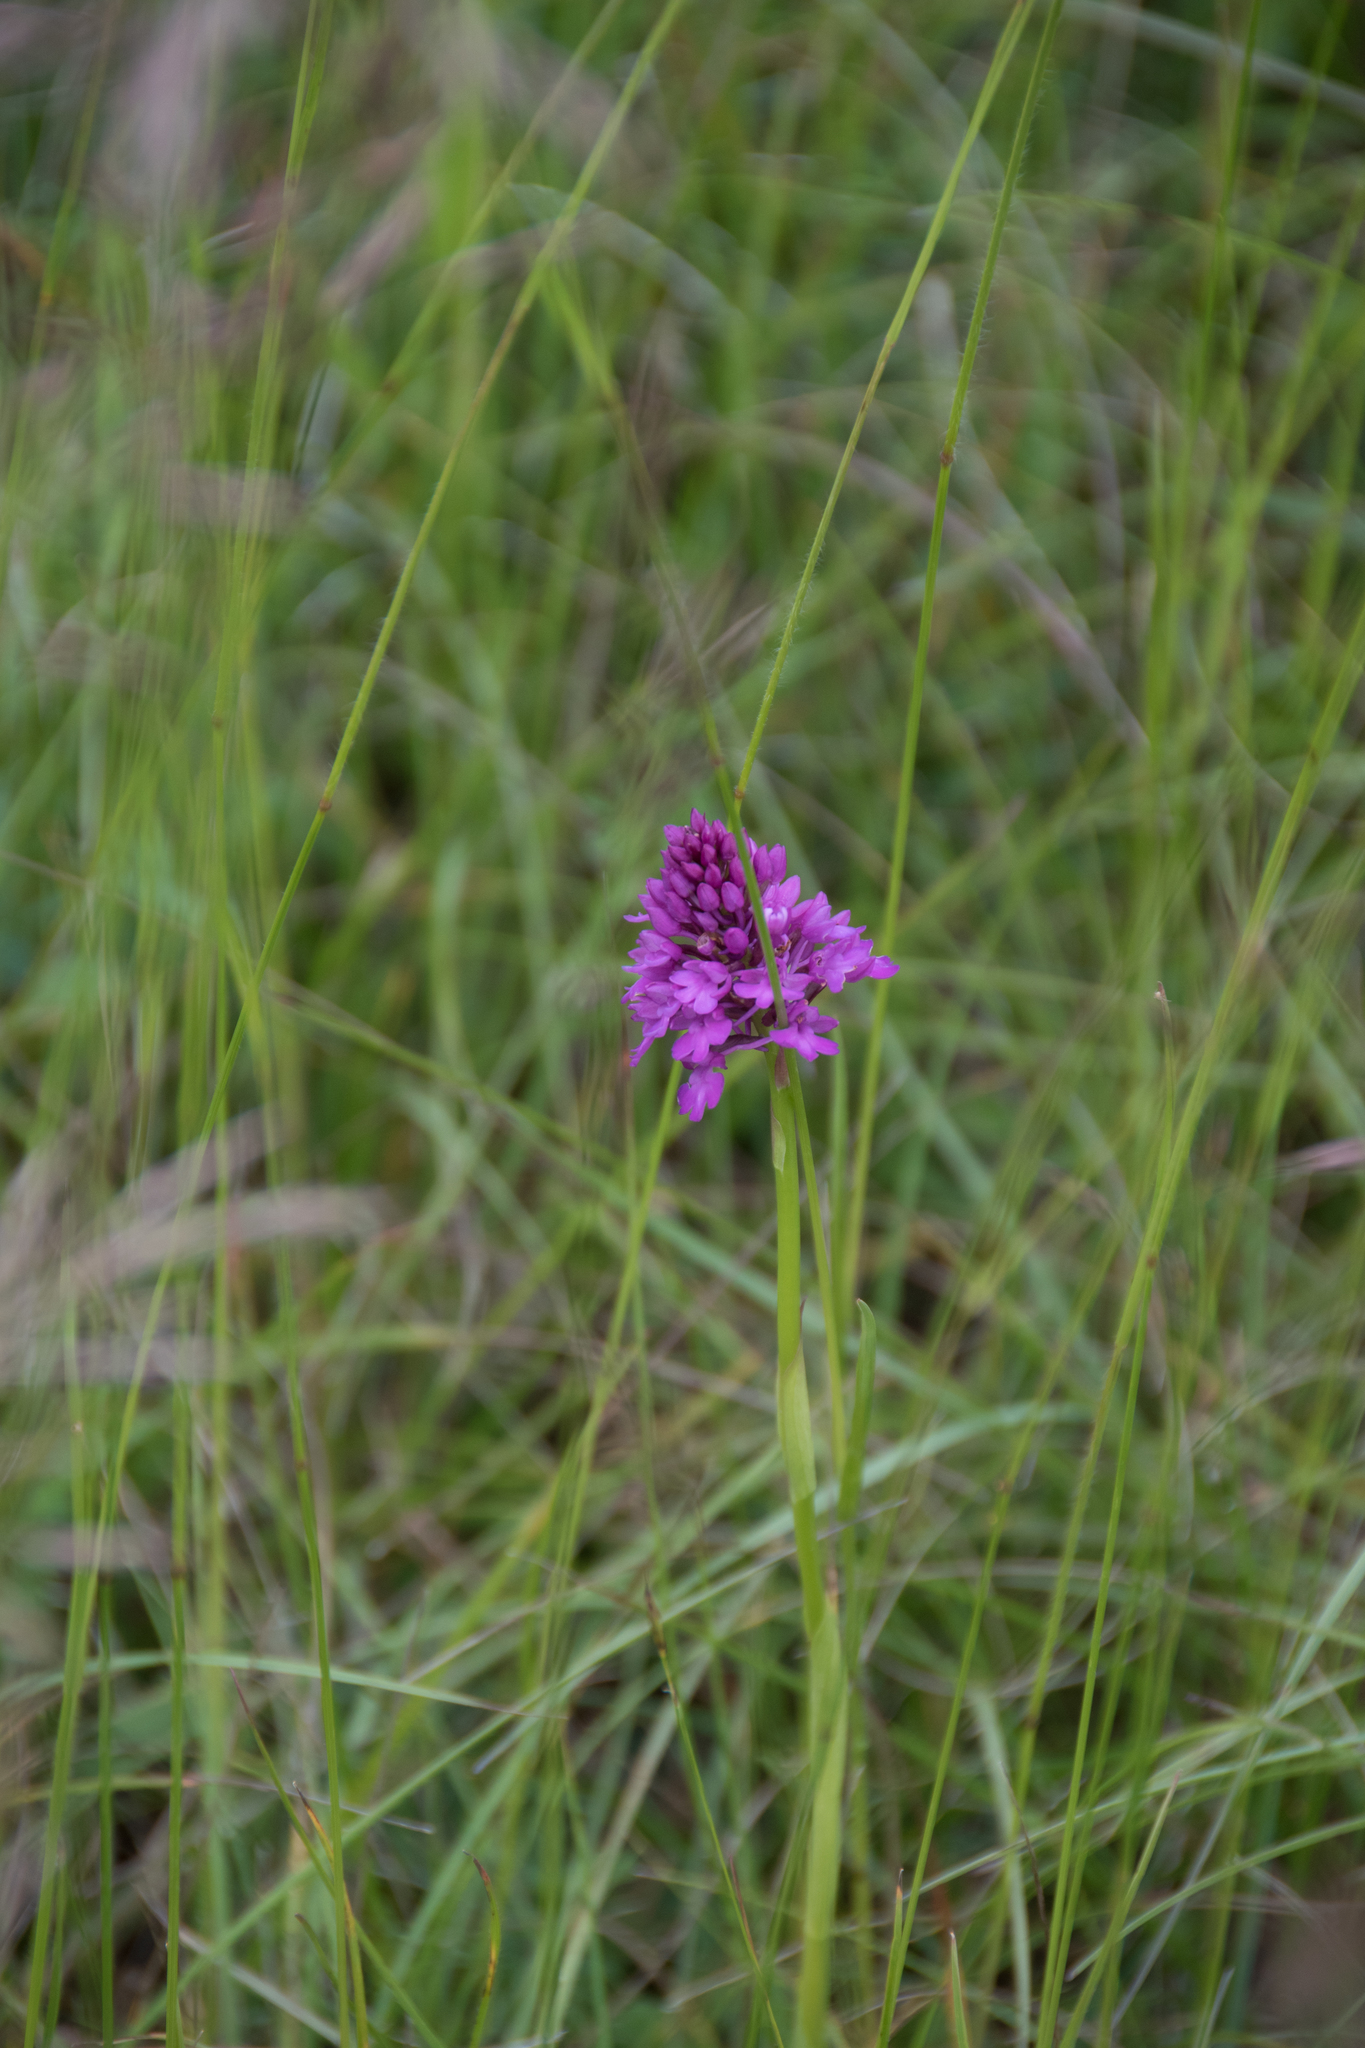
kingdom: Plantae
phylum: Tracheophyta
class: Liliopsida
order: Asparagales
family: Orchidaceae
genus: Anacamptis
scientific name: Anacamptis pyramidalis
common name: Pyramidal orchid
